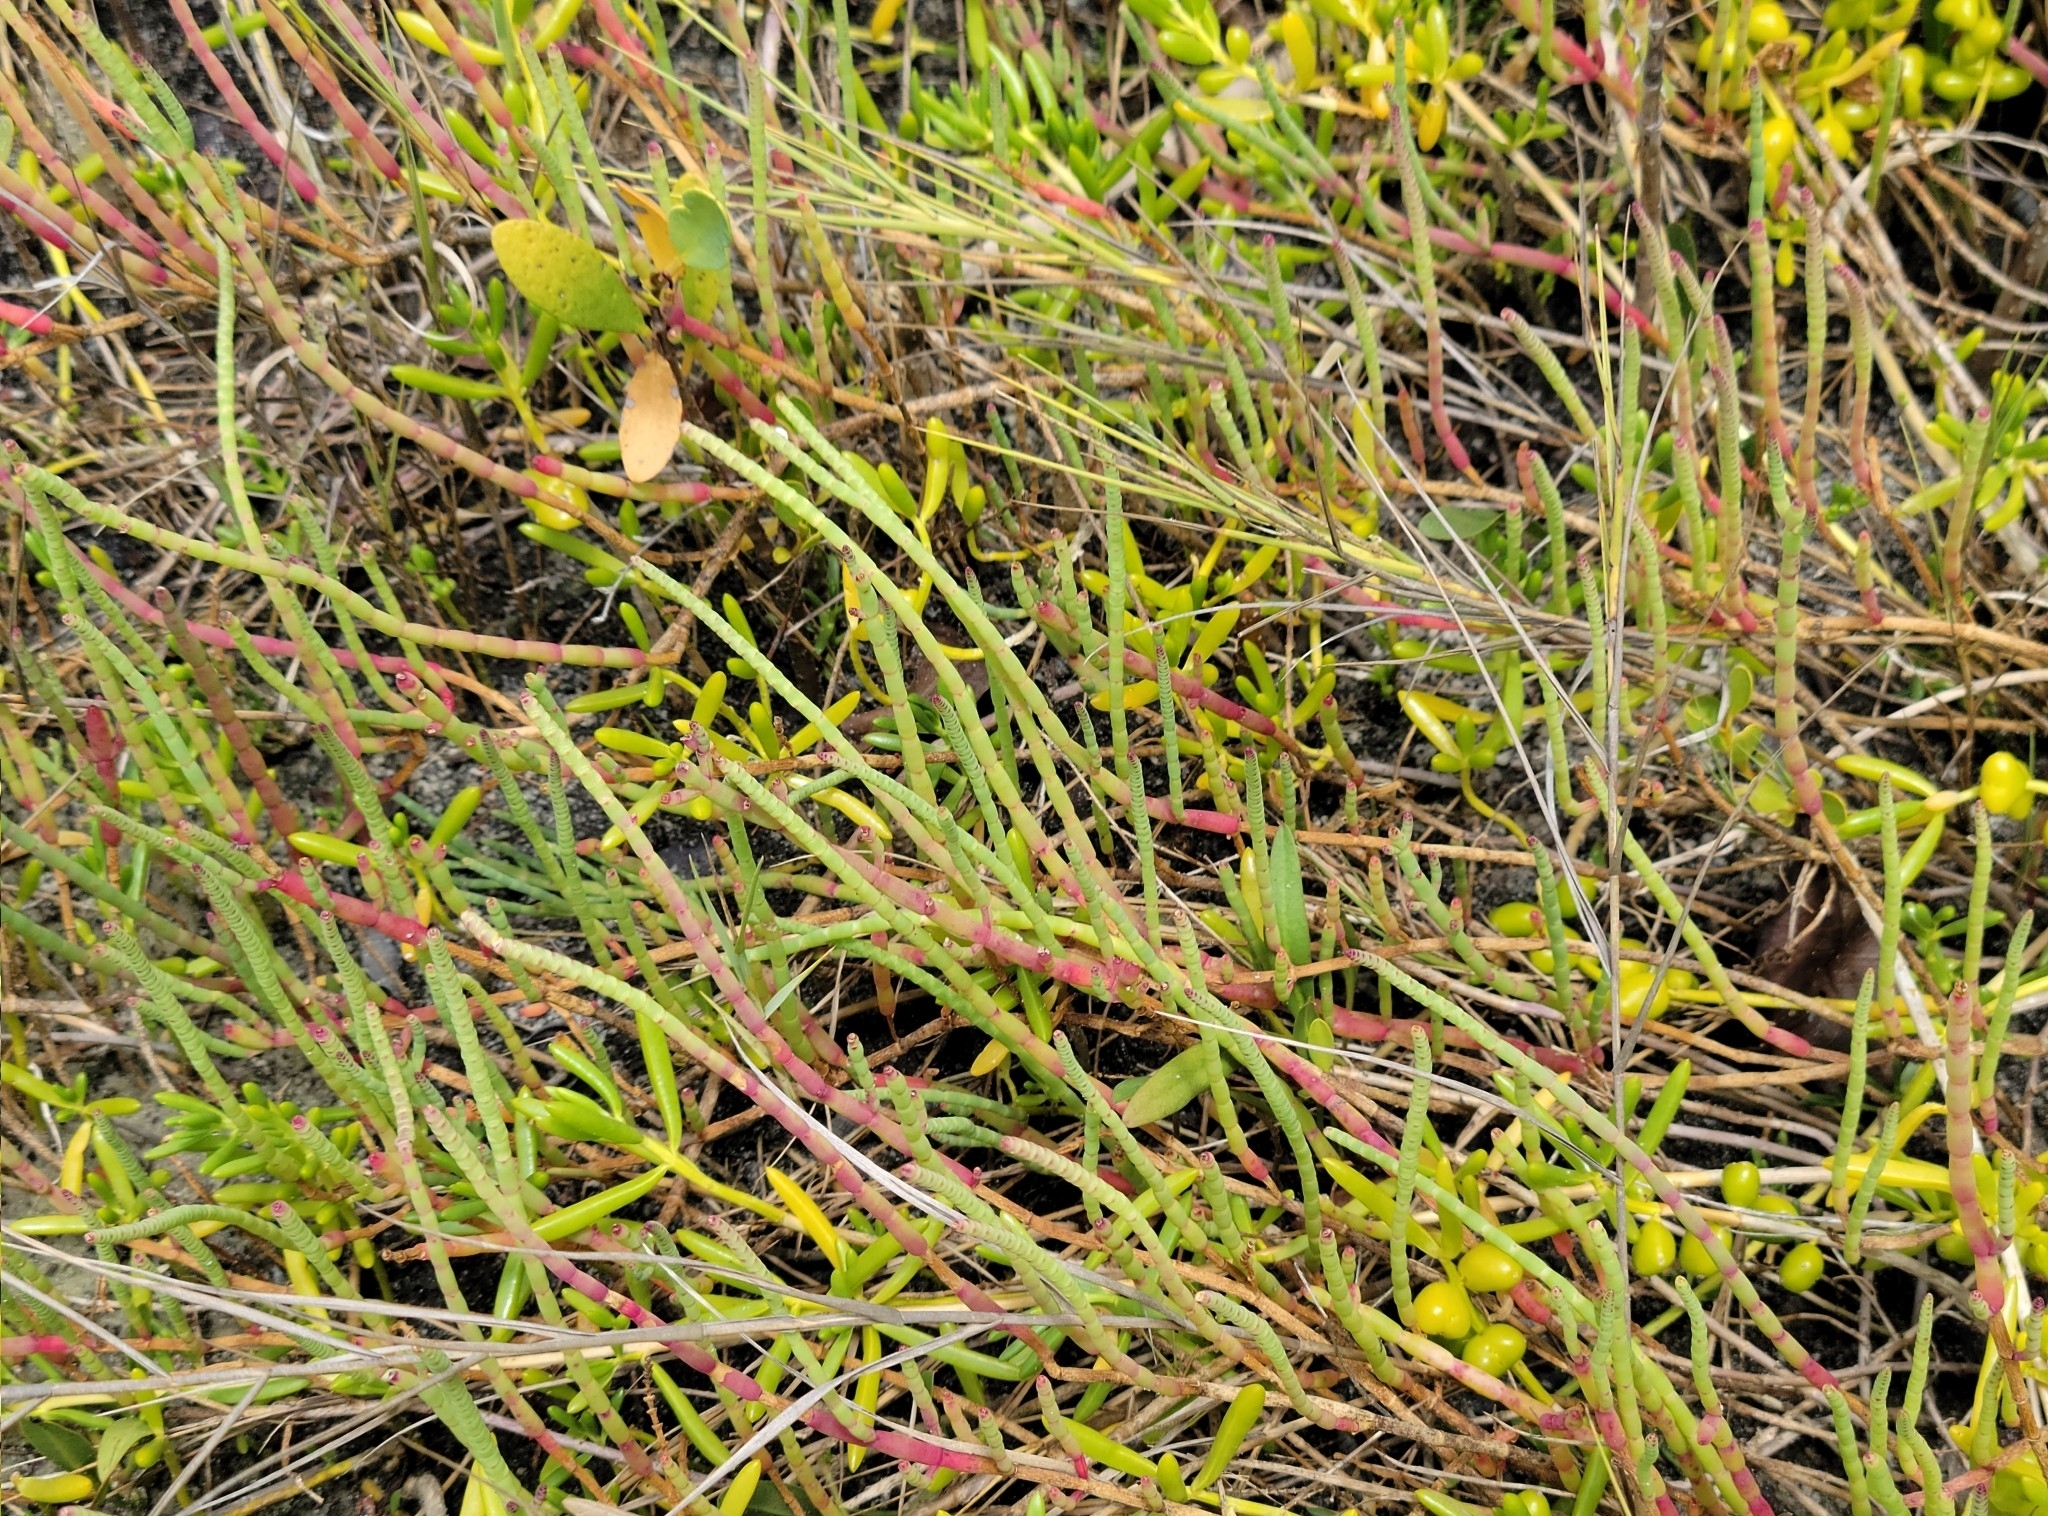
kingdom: Plantae
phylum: Tracheophyta
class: Magnoliopsida
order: Caryophyllales
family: Amaranthaceae
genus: Salicornia
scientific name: Salicornia ambigua
